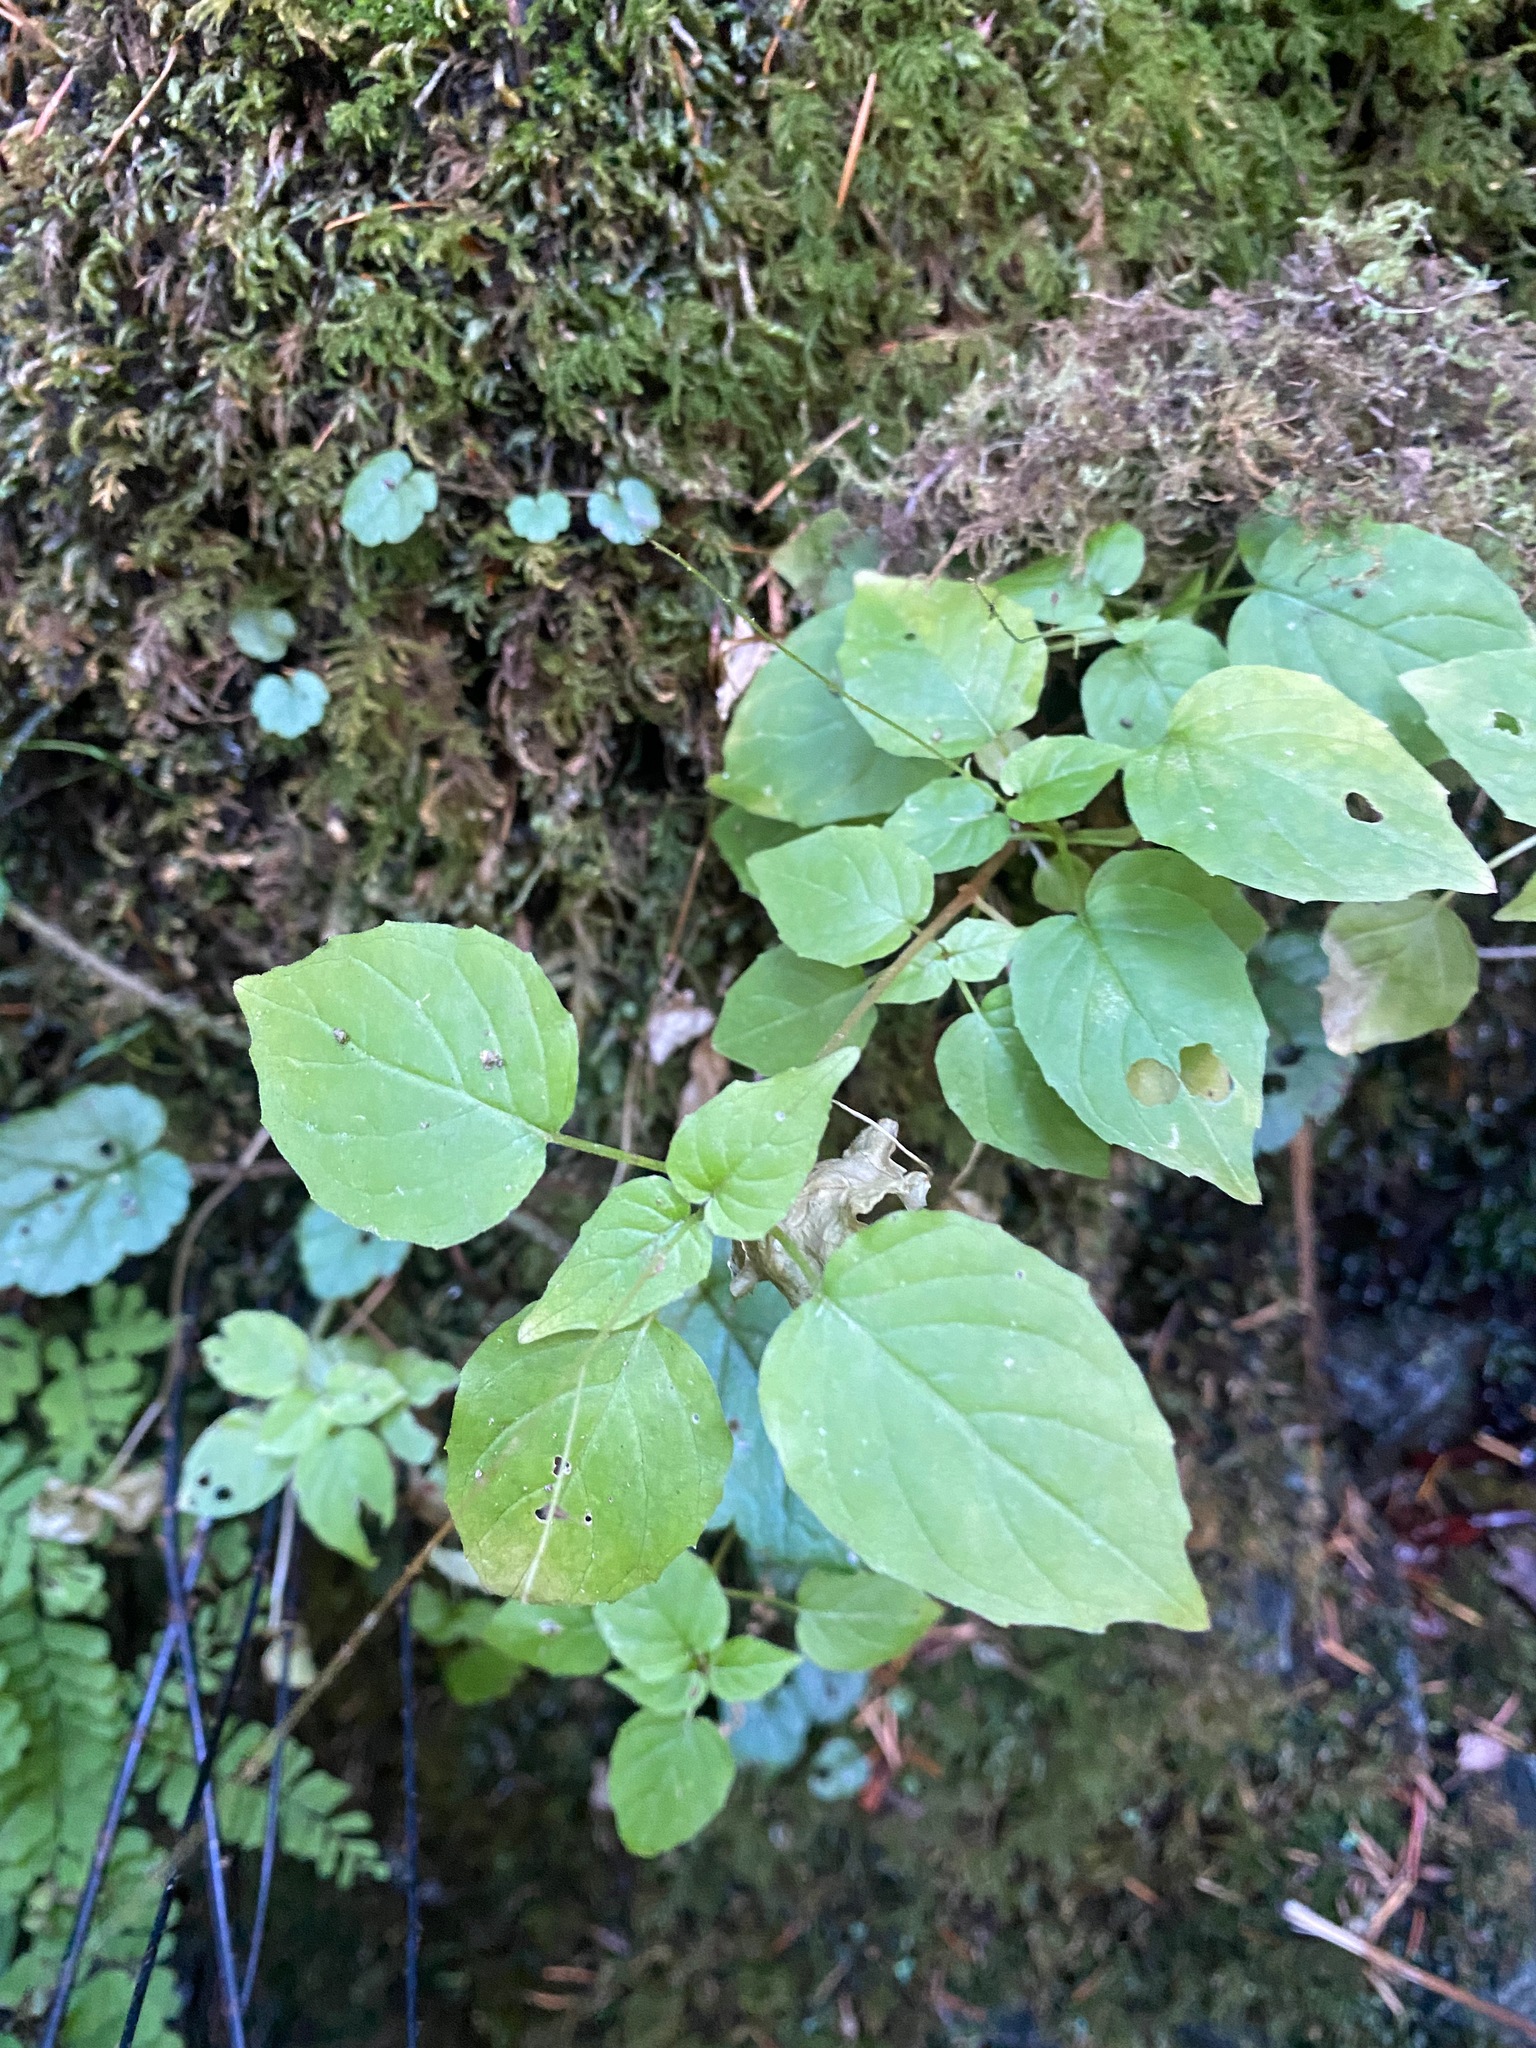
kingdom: Plantae
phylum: Tracheophyta
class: Magnoliopsida
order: Myrtales
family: Onagraceae
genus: Circaea
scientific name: Circaea alpina
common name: Alpine enchanter's-nightshade
